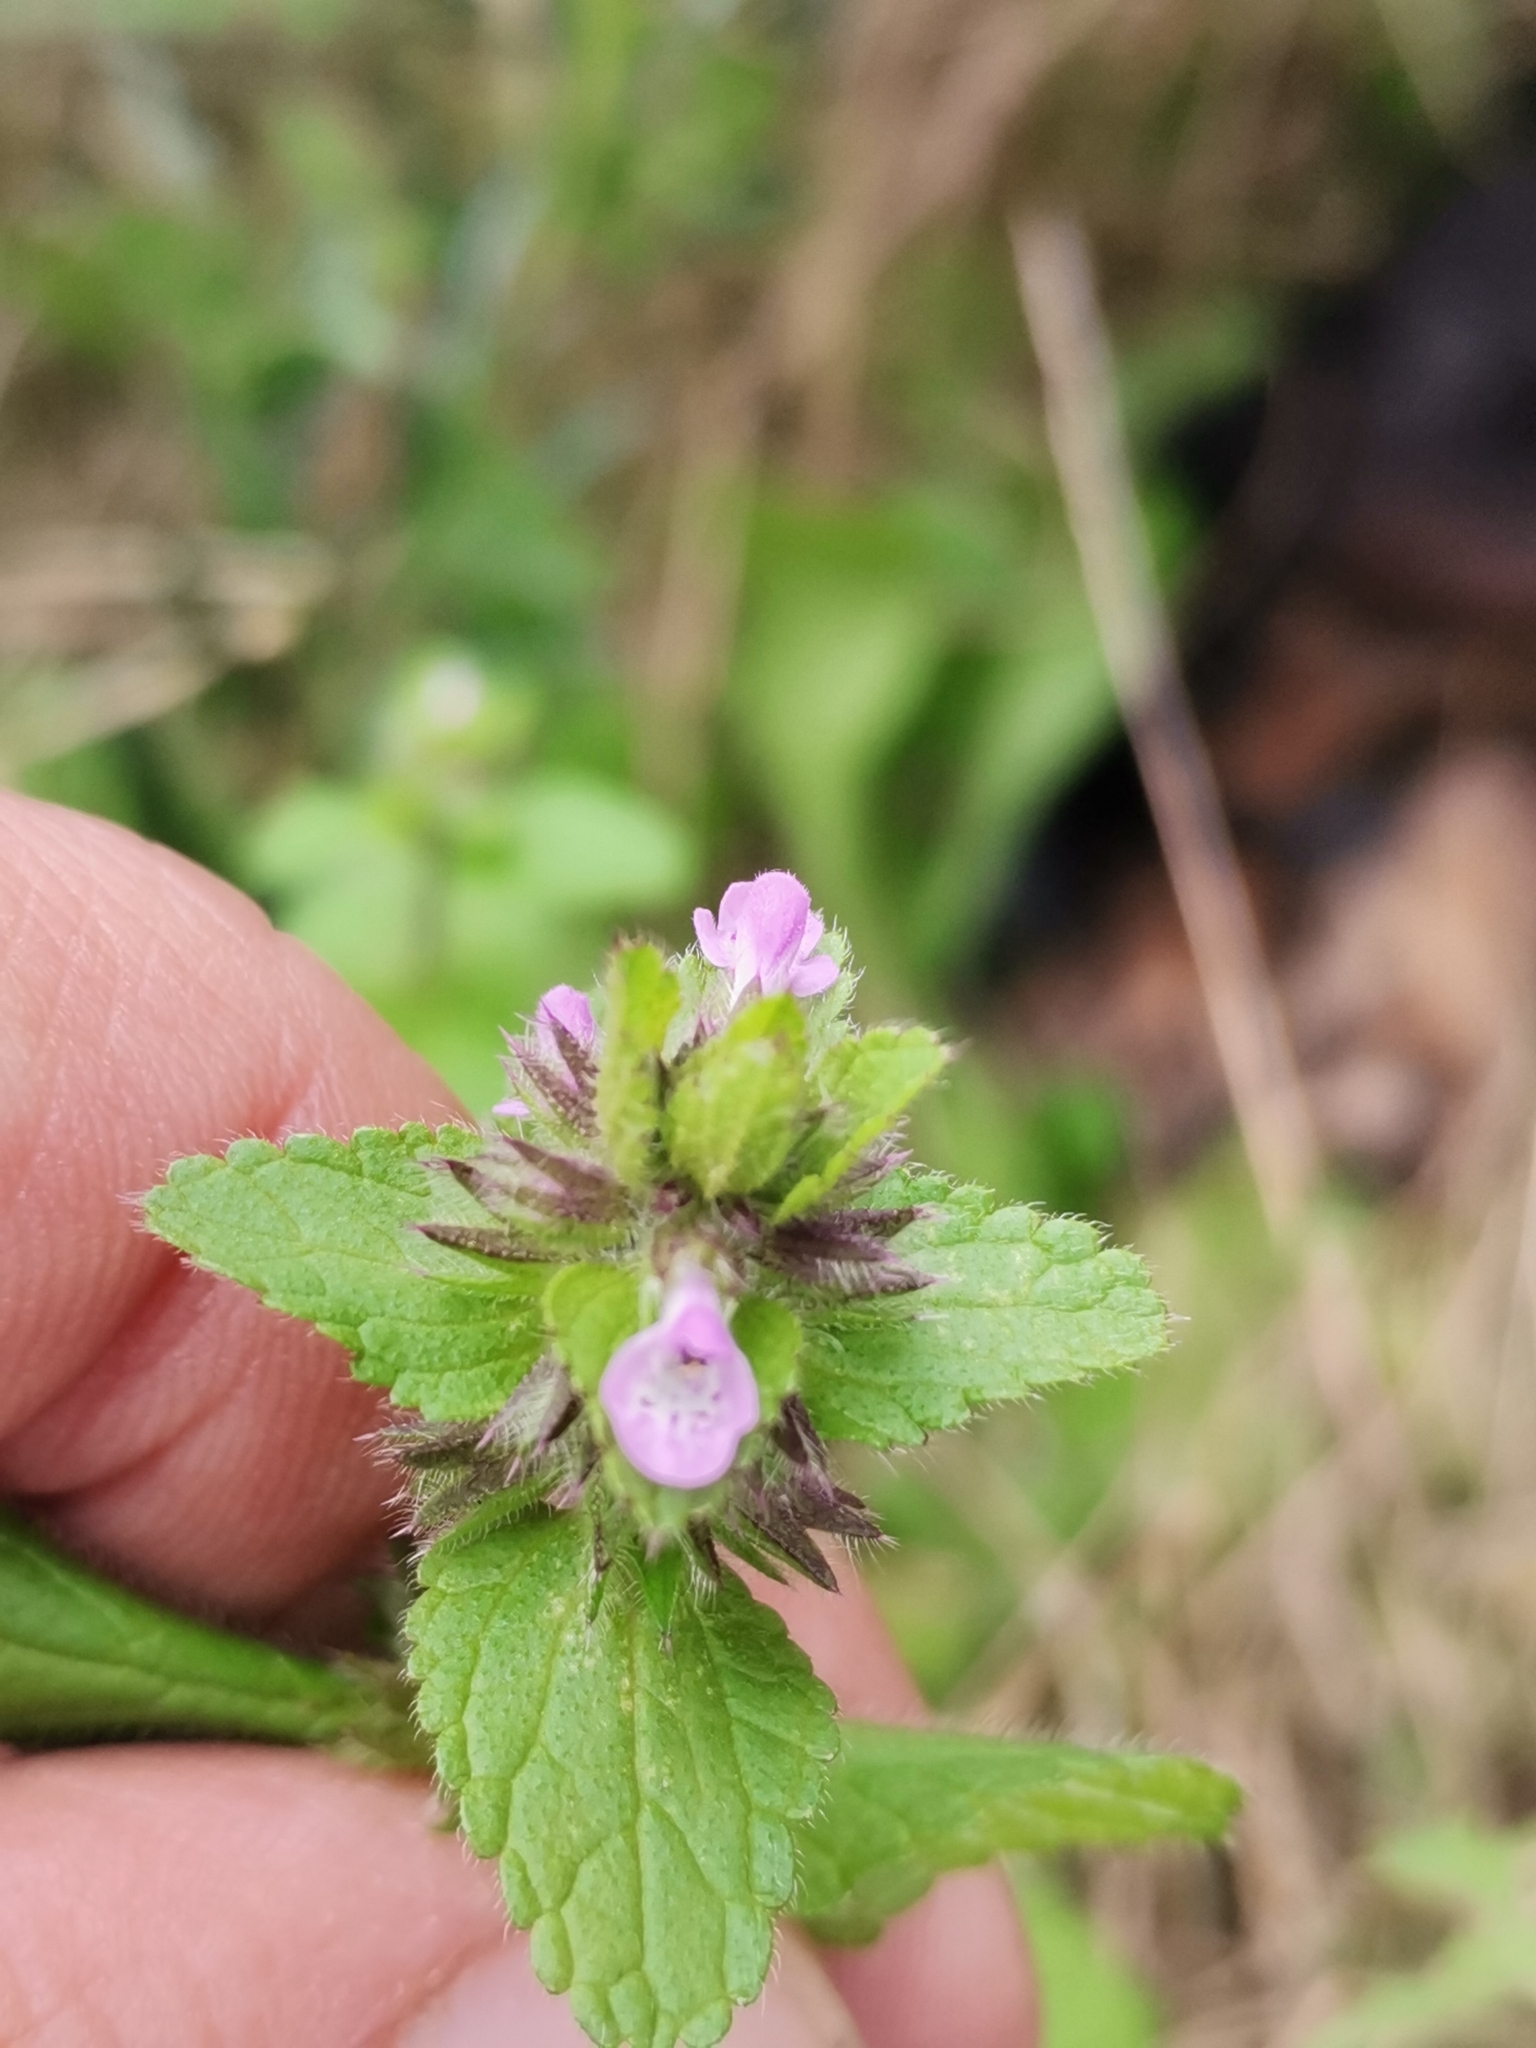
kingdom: Plantae
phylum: Tracheophyta
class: Magnoliopsida
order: Lamiales
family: Lamiaceae
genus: Stachys
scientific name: Stachys arvensis
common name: Field woundwort
